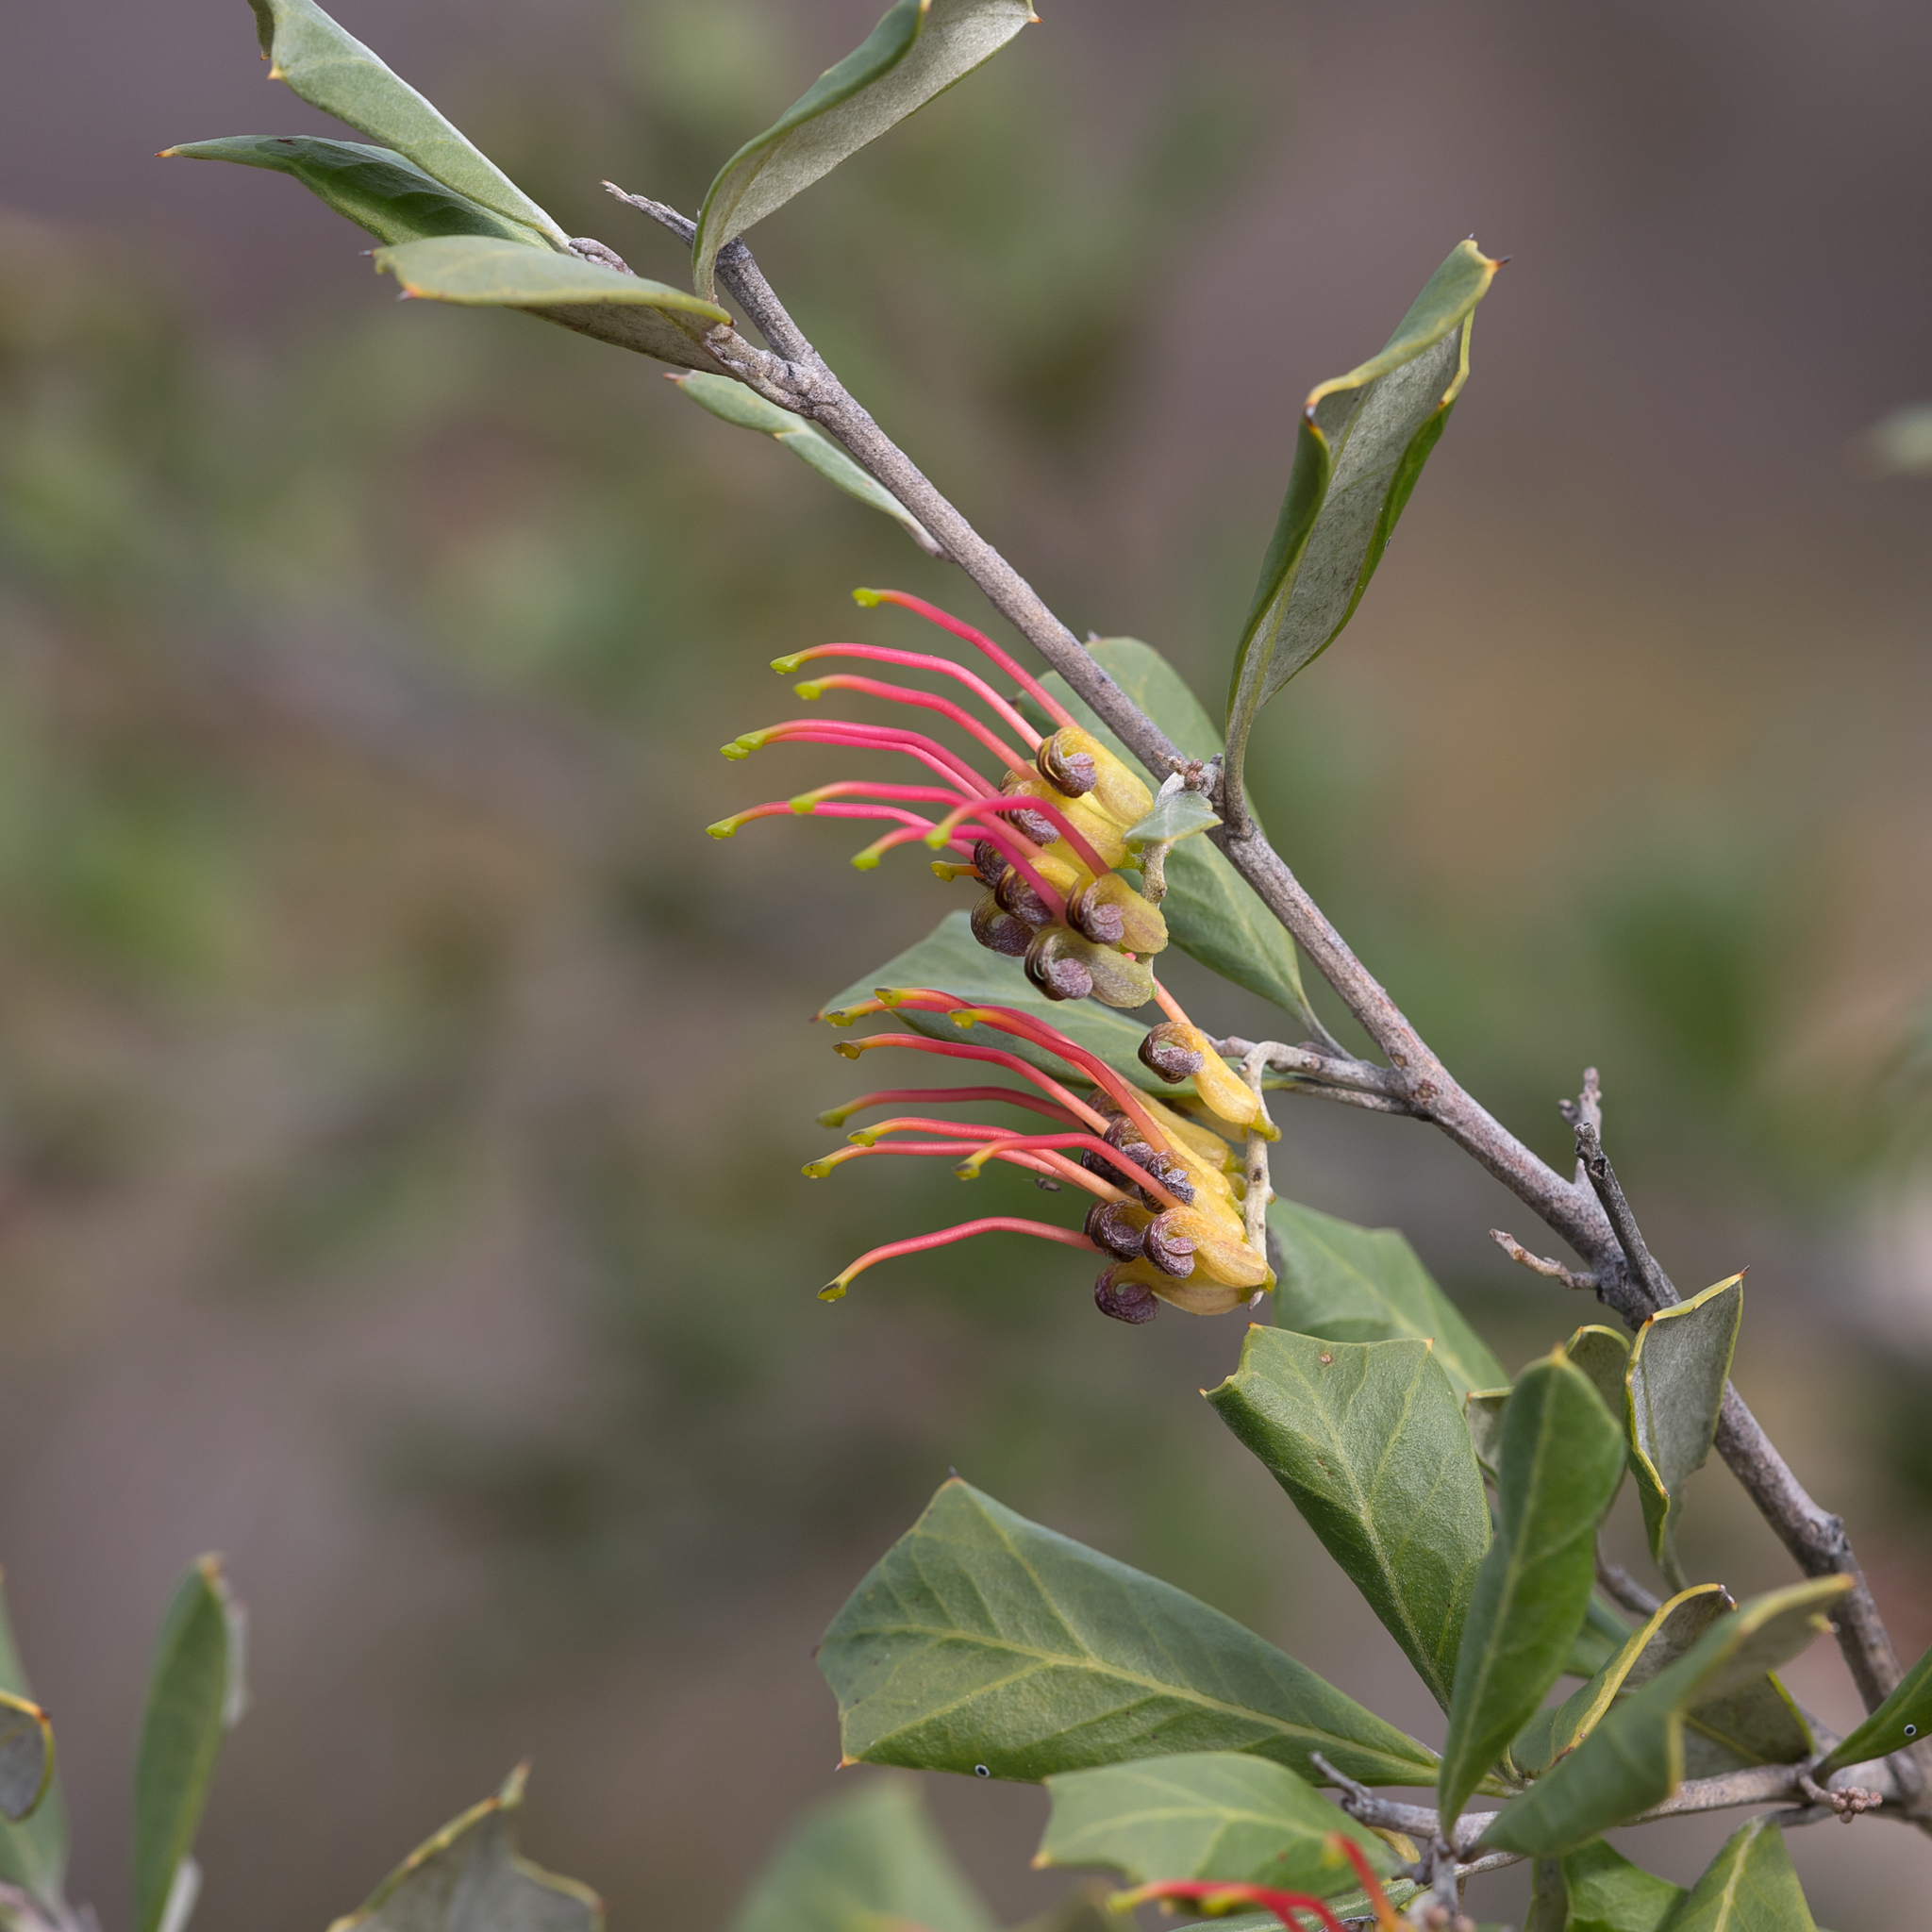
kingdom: Plantae
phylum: Tracheophyta
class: Magnoliopsida
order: Proteales
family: Proteaceae
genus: Grevillea
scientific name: Grevillea ilicifolia
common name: Holly grevillea
